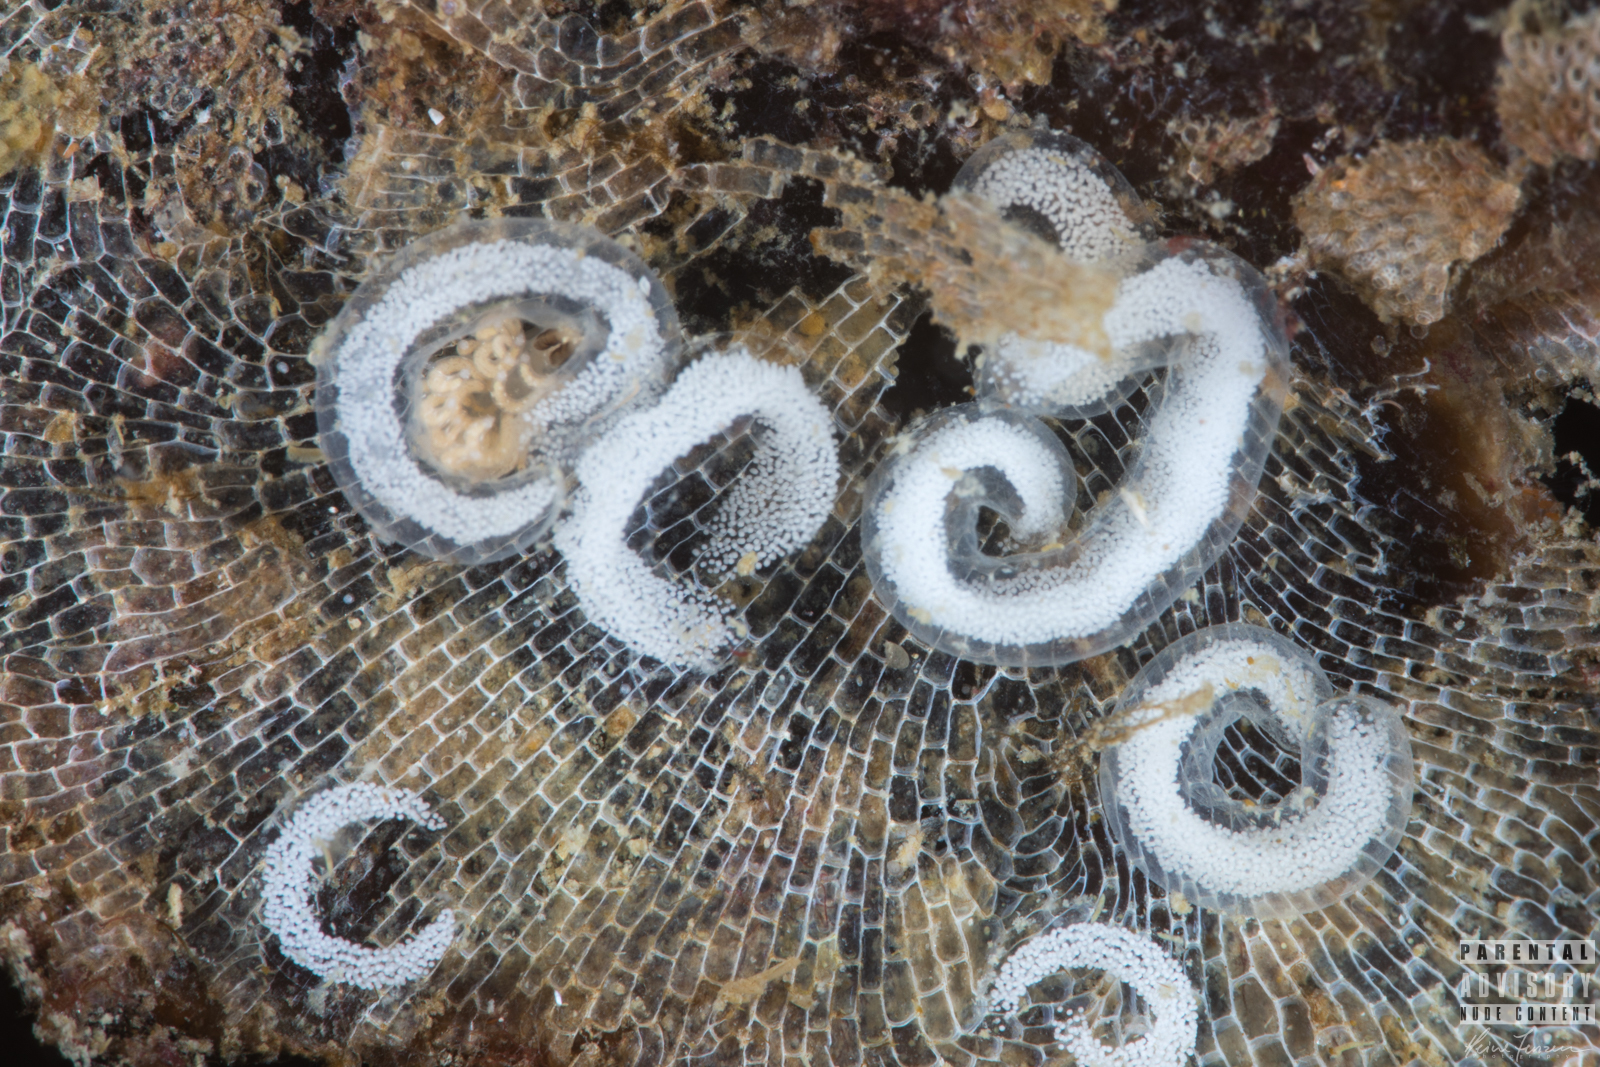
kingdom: Animalia
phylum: Mollusca
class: Gastropoda
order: Nudibranchia
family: Onchidorididae
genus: Onchidoris
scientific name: Onchidoris muricata
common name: Rough doris
